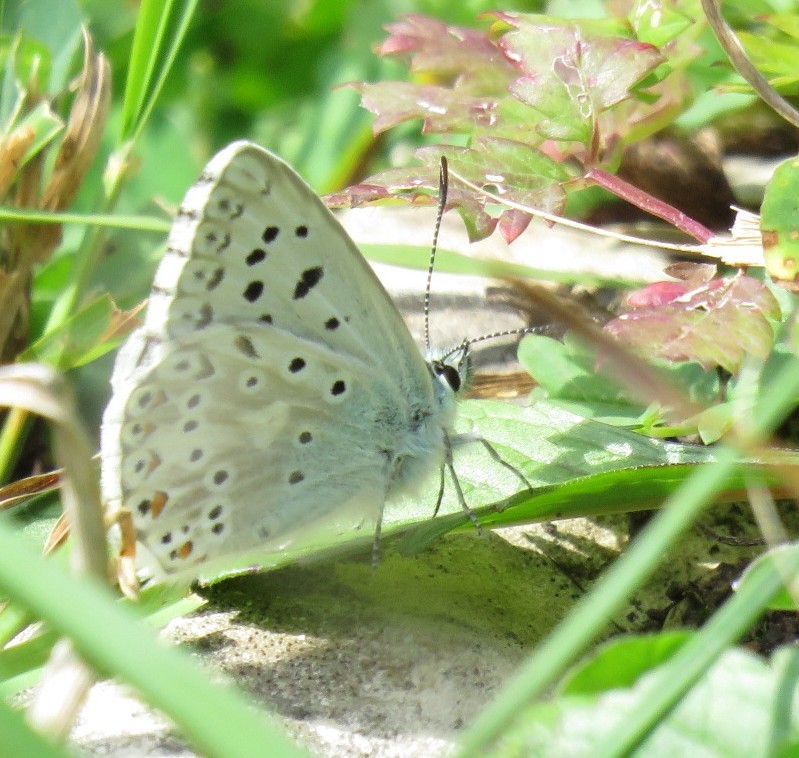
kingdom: Animalia
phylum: Arthropoda
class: Insecta
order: Lepidoptera
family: Lycaenidae
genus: Lysandra
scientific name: Lysandra coridon
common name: Chalkhill blue
